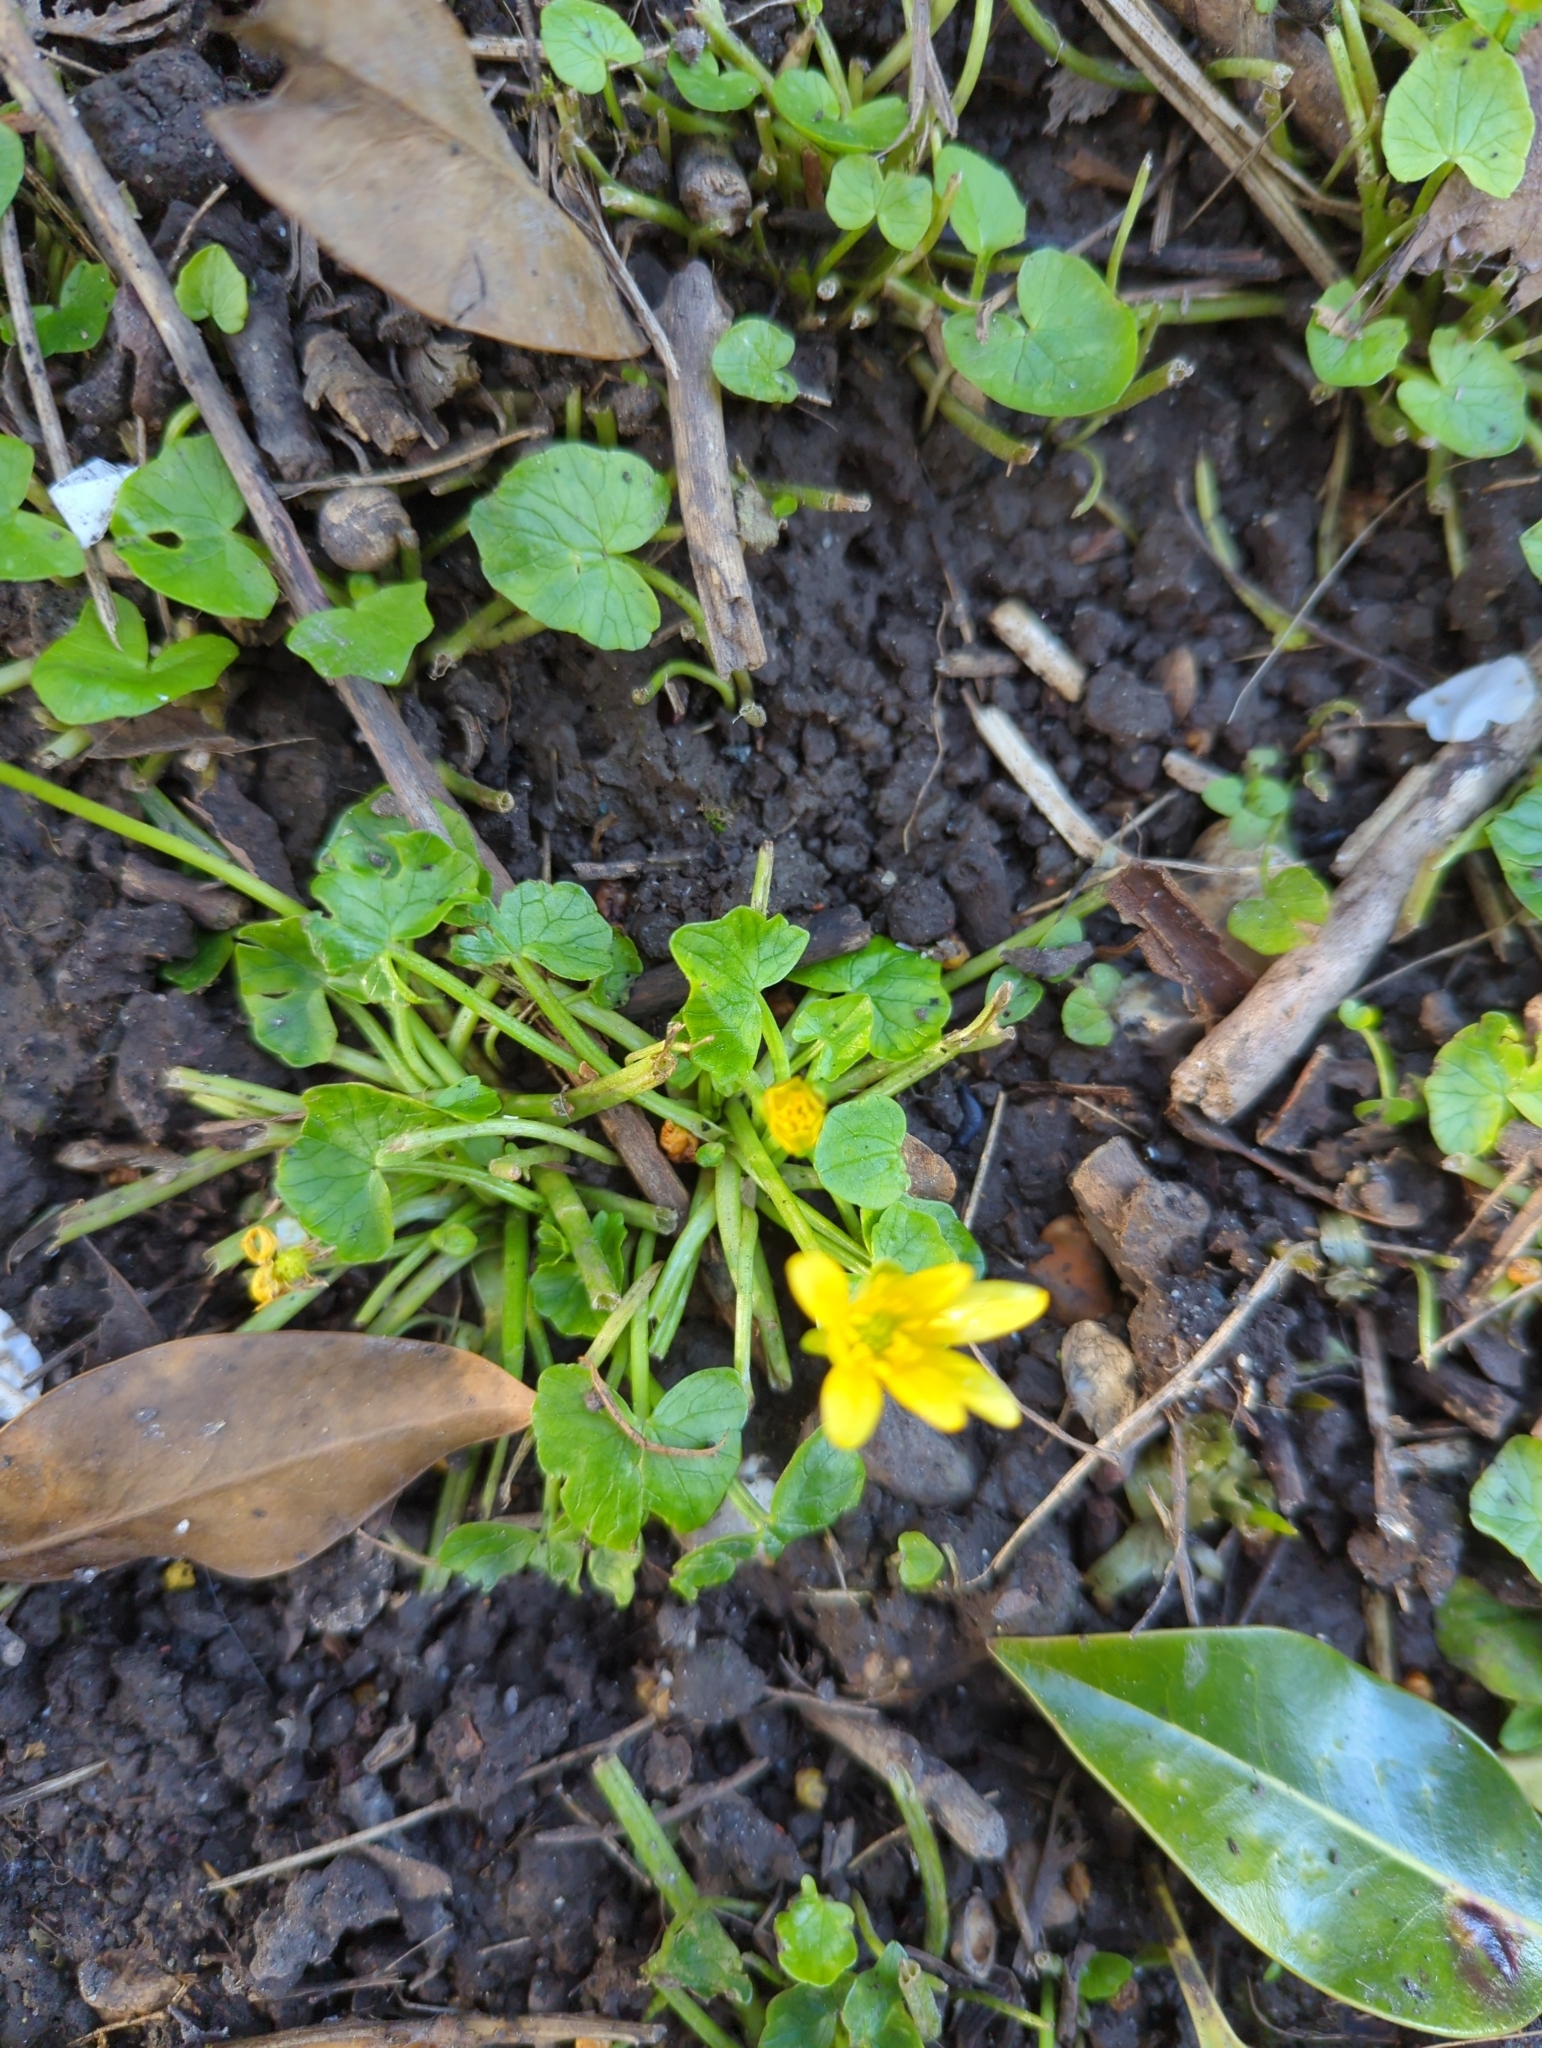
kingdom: Plantae
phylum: Tracheophyta
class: Magnoliopsida
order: Ranunculales
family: Ranunculaceae
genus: Ficaria
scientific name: Ficaria verna
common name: Lesser celandine
